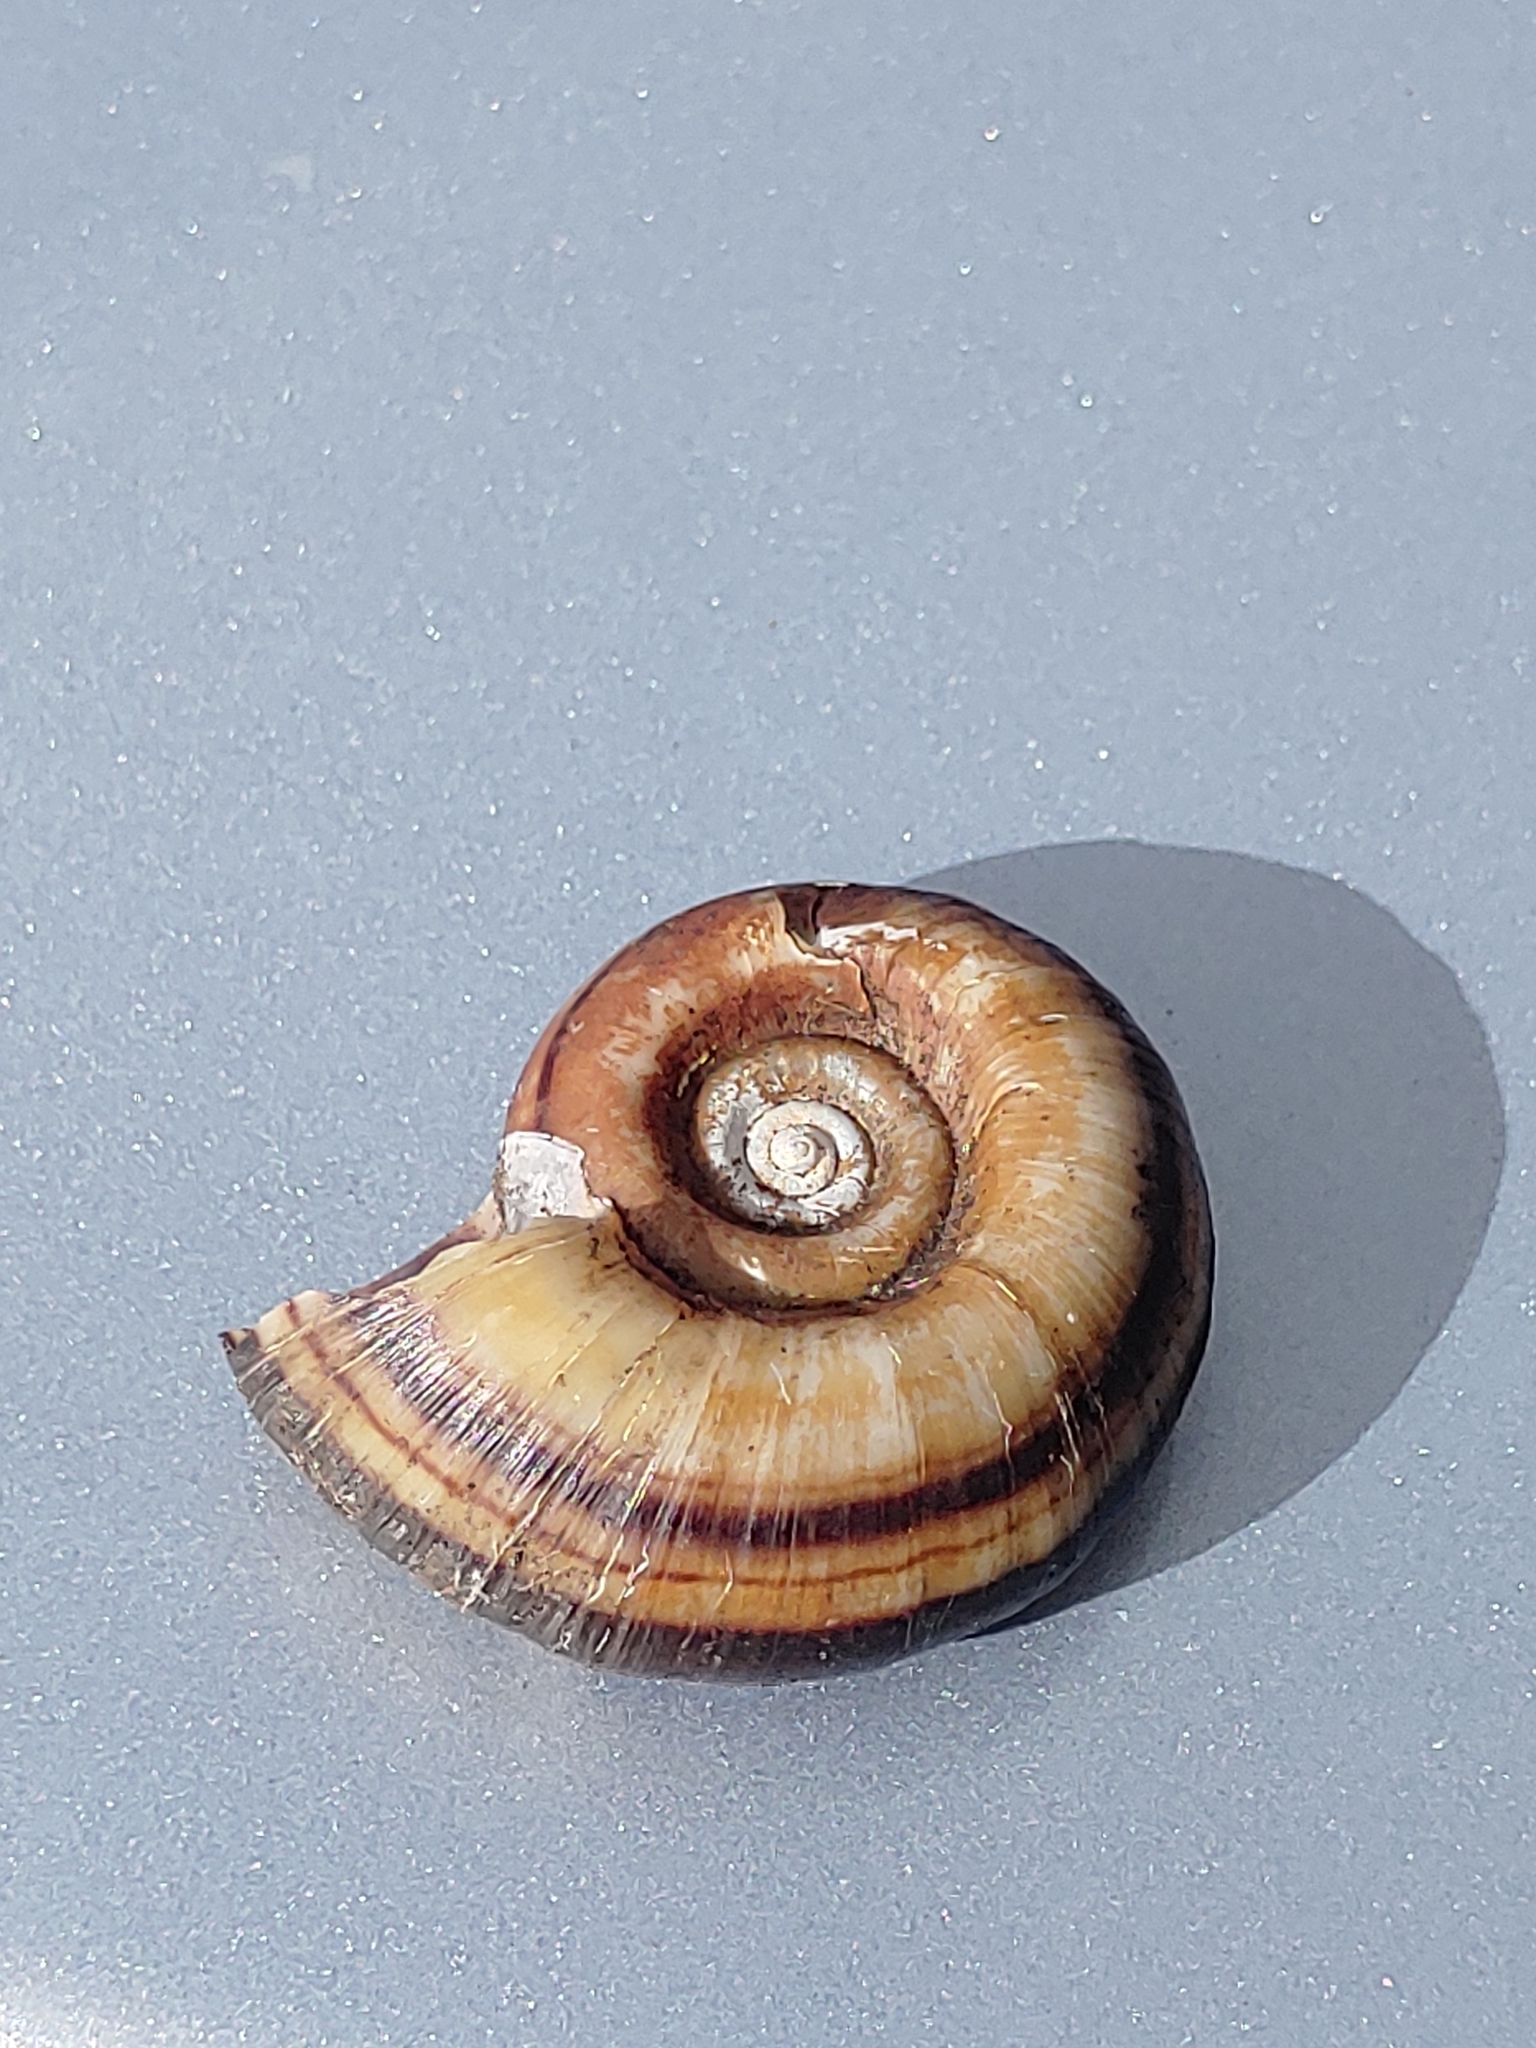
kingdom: Animalia
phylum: Mollusca
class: Gastropoda
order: Architaenioglossa
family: Ampullariidae
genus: Marisa
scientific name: Marisa cornuarietis
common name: Giant ramshorn snail
